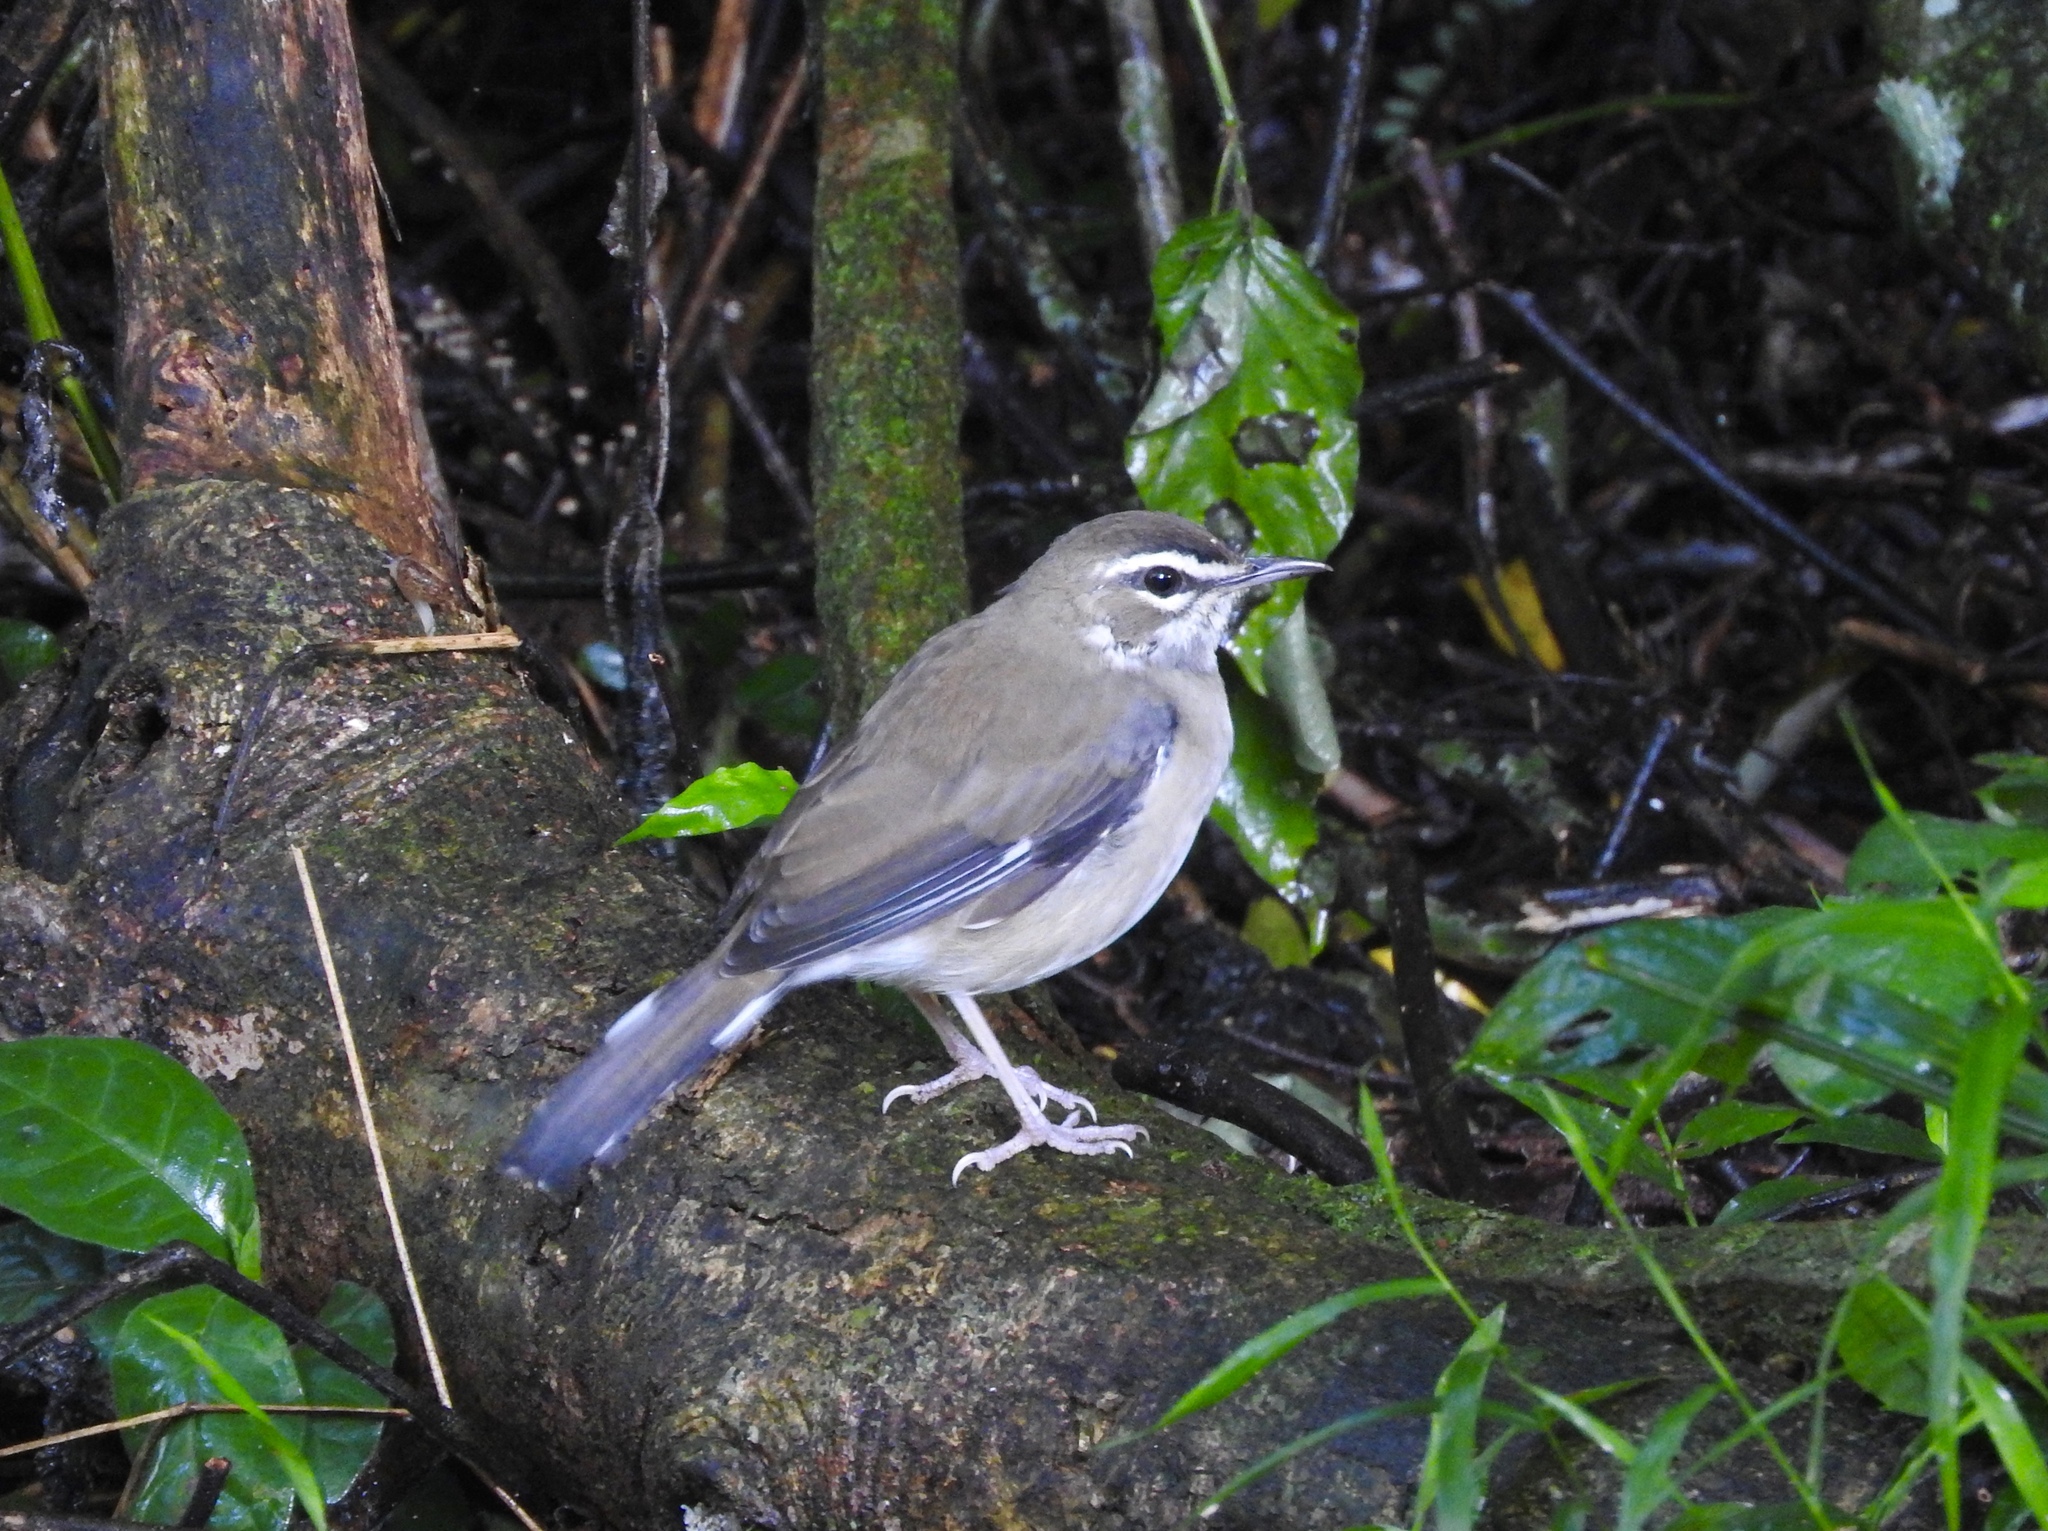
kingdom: Animalia
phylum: Chordata
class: Aves
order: Passeriformes
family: Muscicapidae
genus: Erythropygia
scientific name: Erythropygia signata
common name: Brown scrub robin
